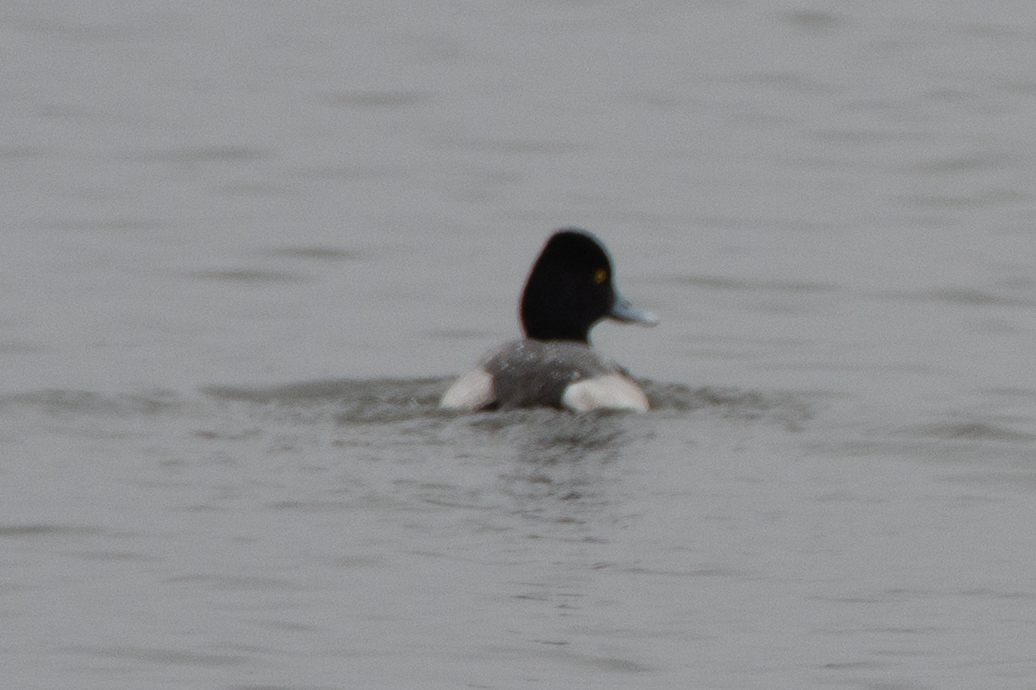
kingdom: Animalia
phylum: Chordata
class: Aves
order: Anseriformes
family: Anatidae
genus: Aythya
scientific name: Aythya affinis
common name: Lesser scaup
